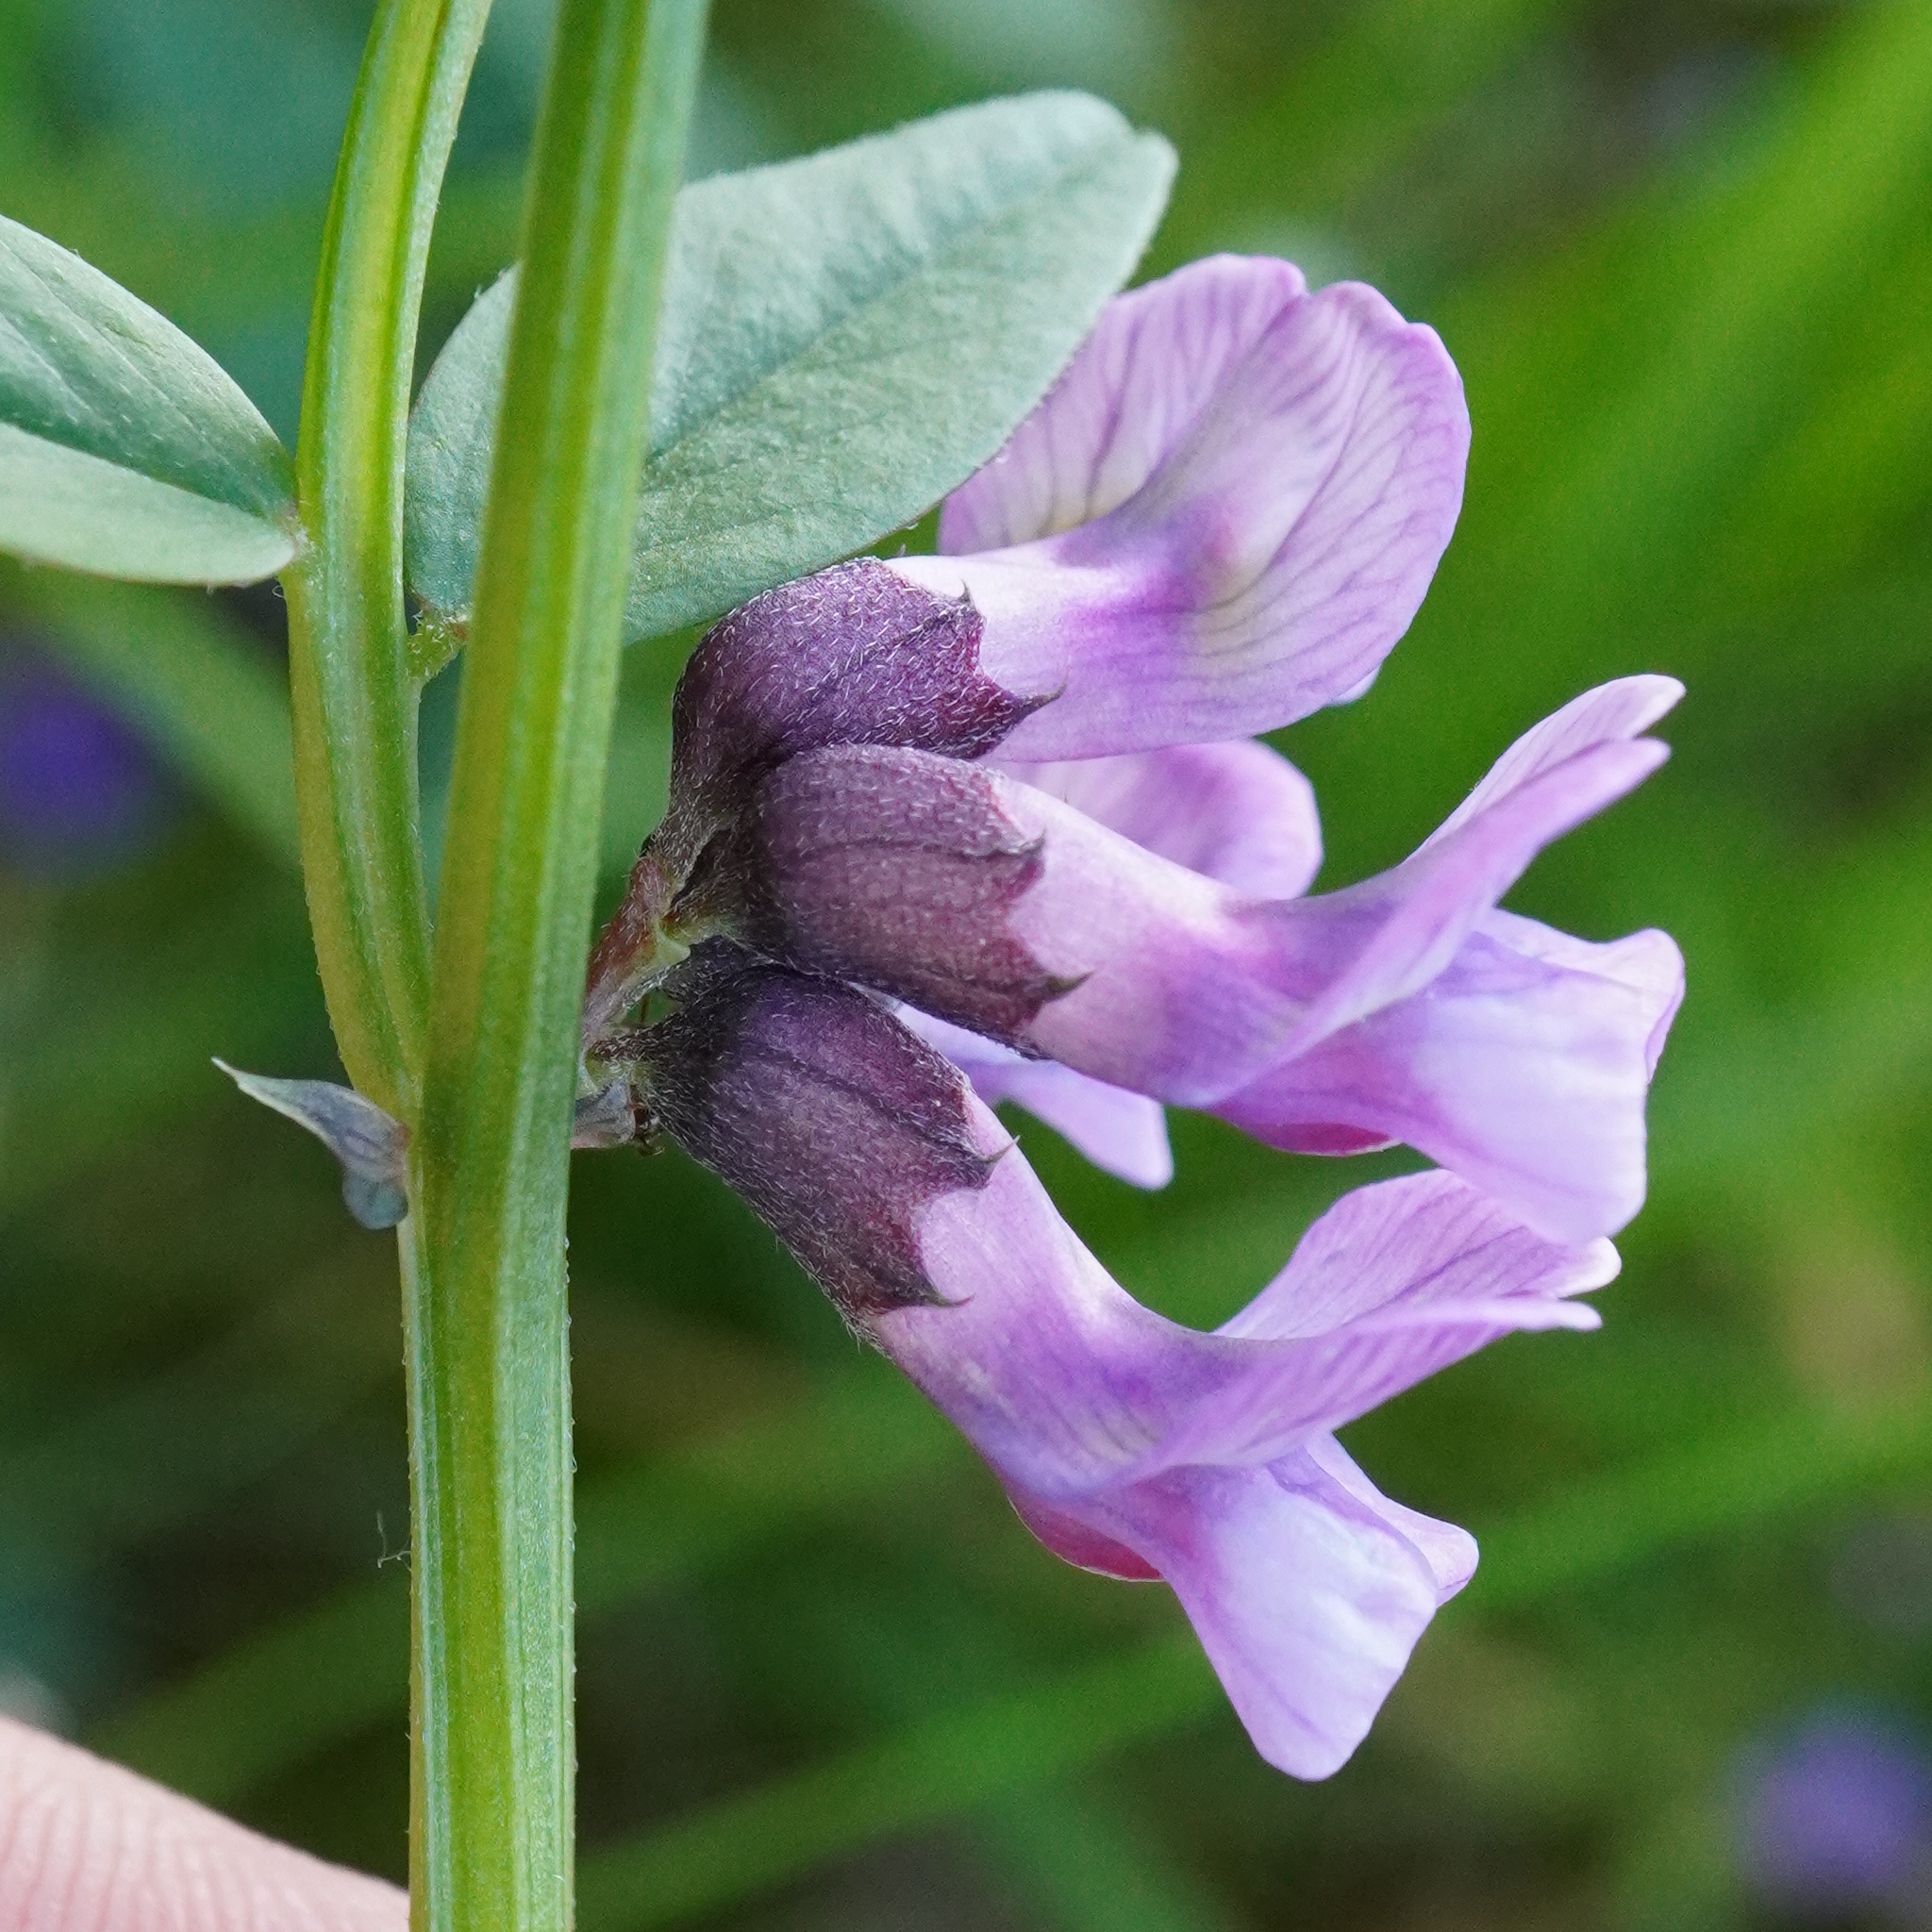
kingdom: Plantae
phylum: Tracheophyta
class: Magnoliopsida
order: Fabales
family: Fabaceae
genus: Vicia
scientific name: Vicia sepium
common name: Bush vetch
